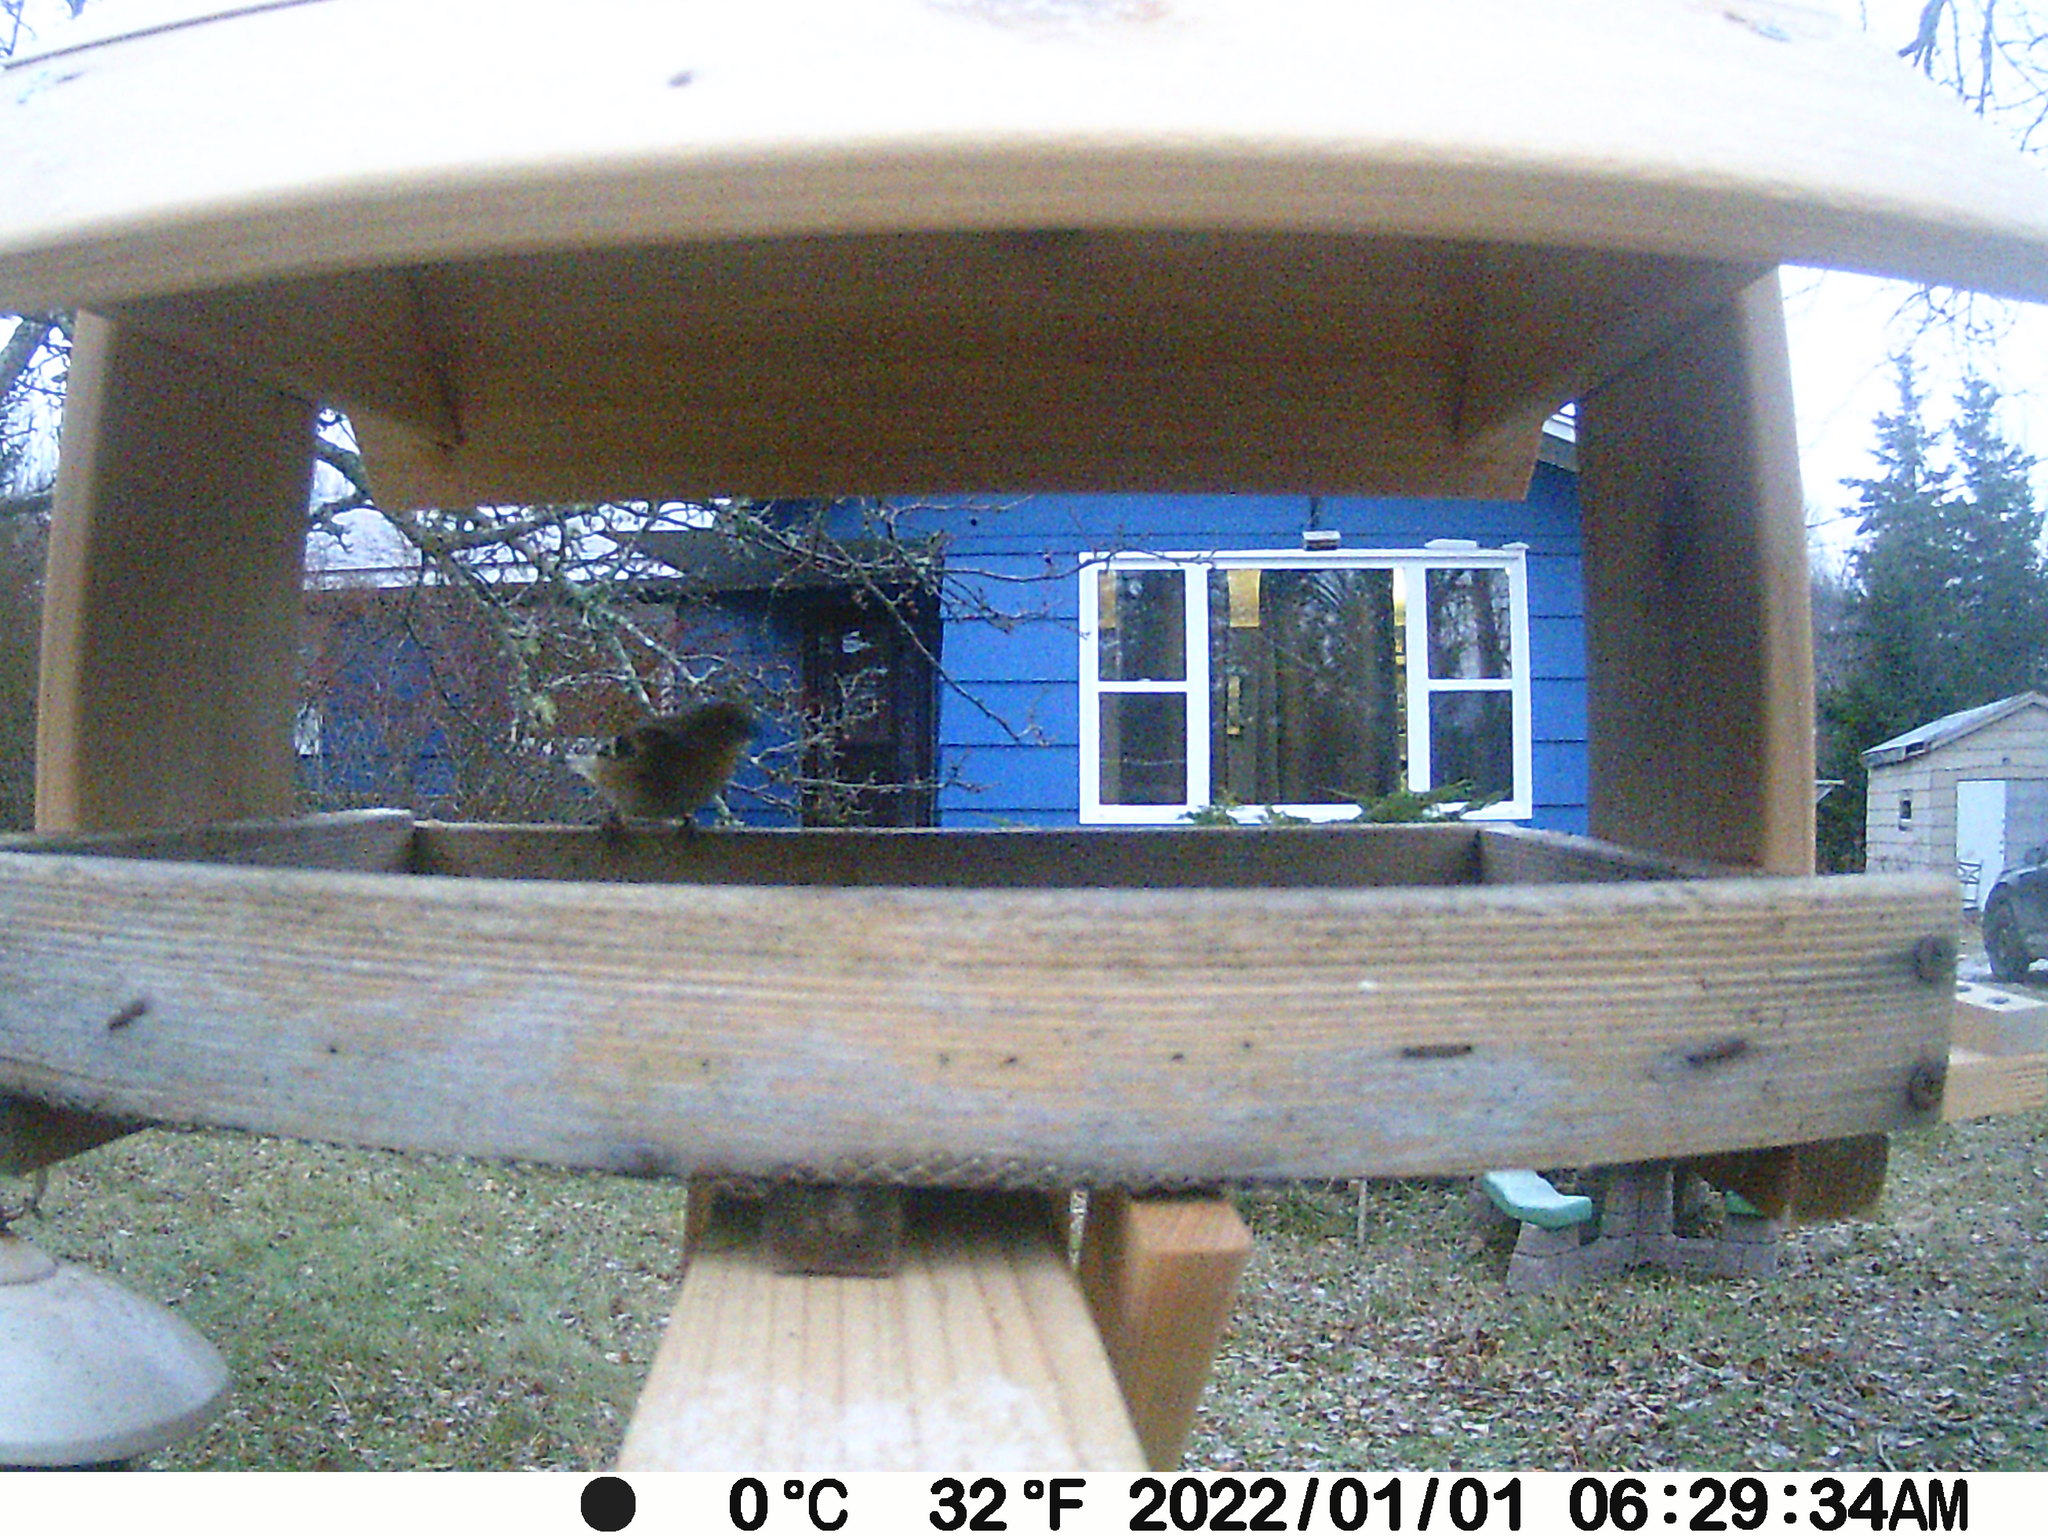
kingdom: Animalia
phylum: Chordata
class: Aves
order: Passeriformes
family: Fringillidae
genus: Spinus
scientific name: Spinus tristis
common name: American goldfinch
